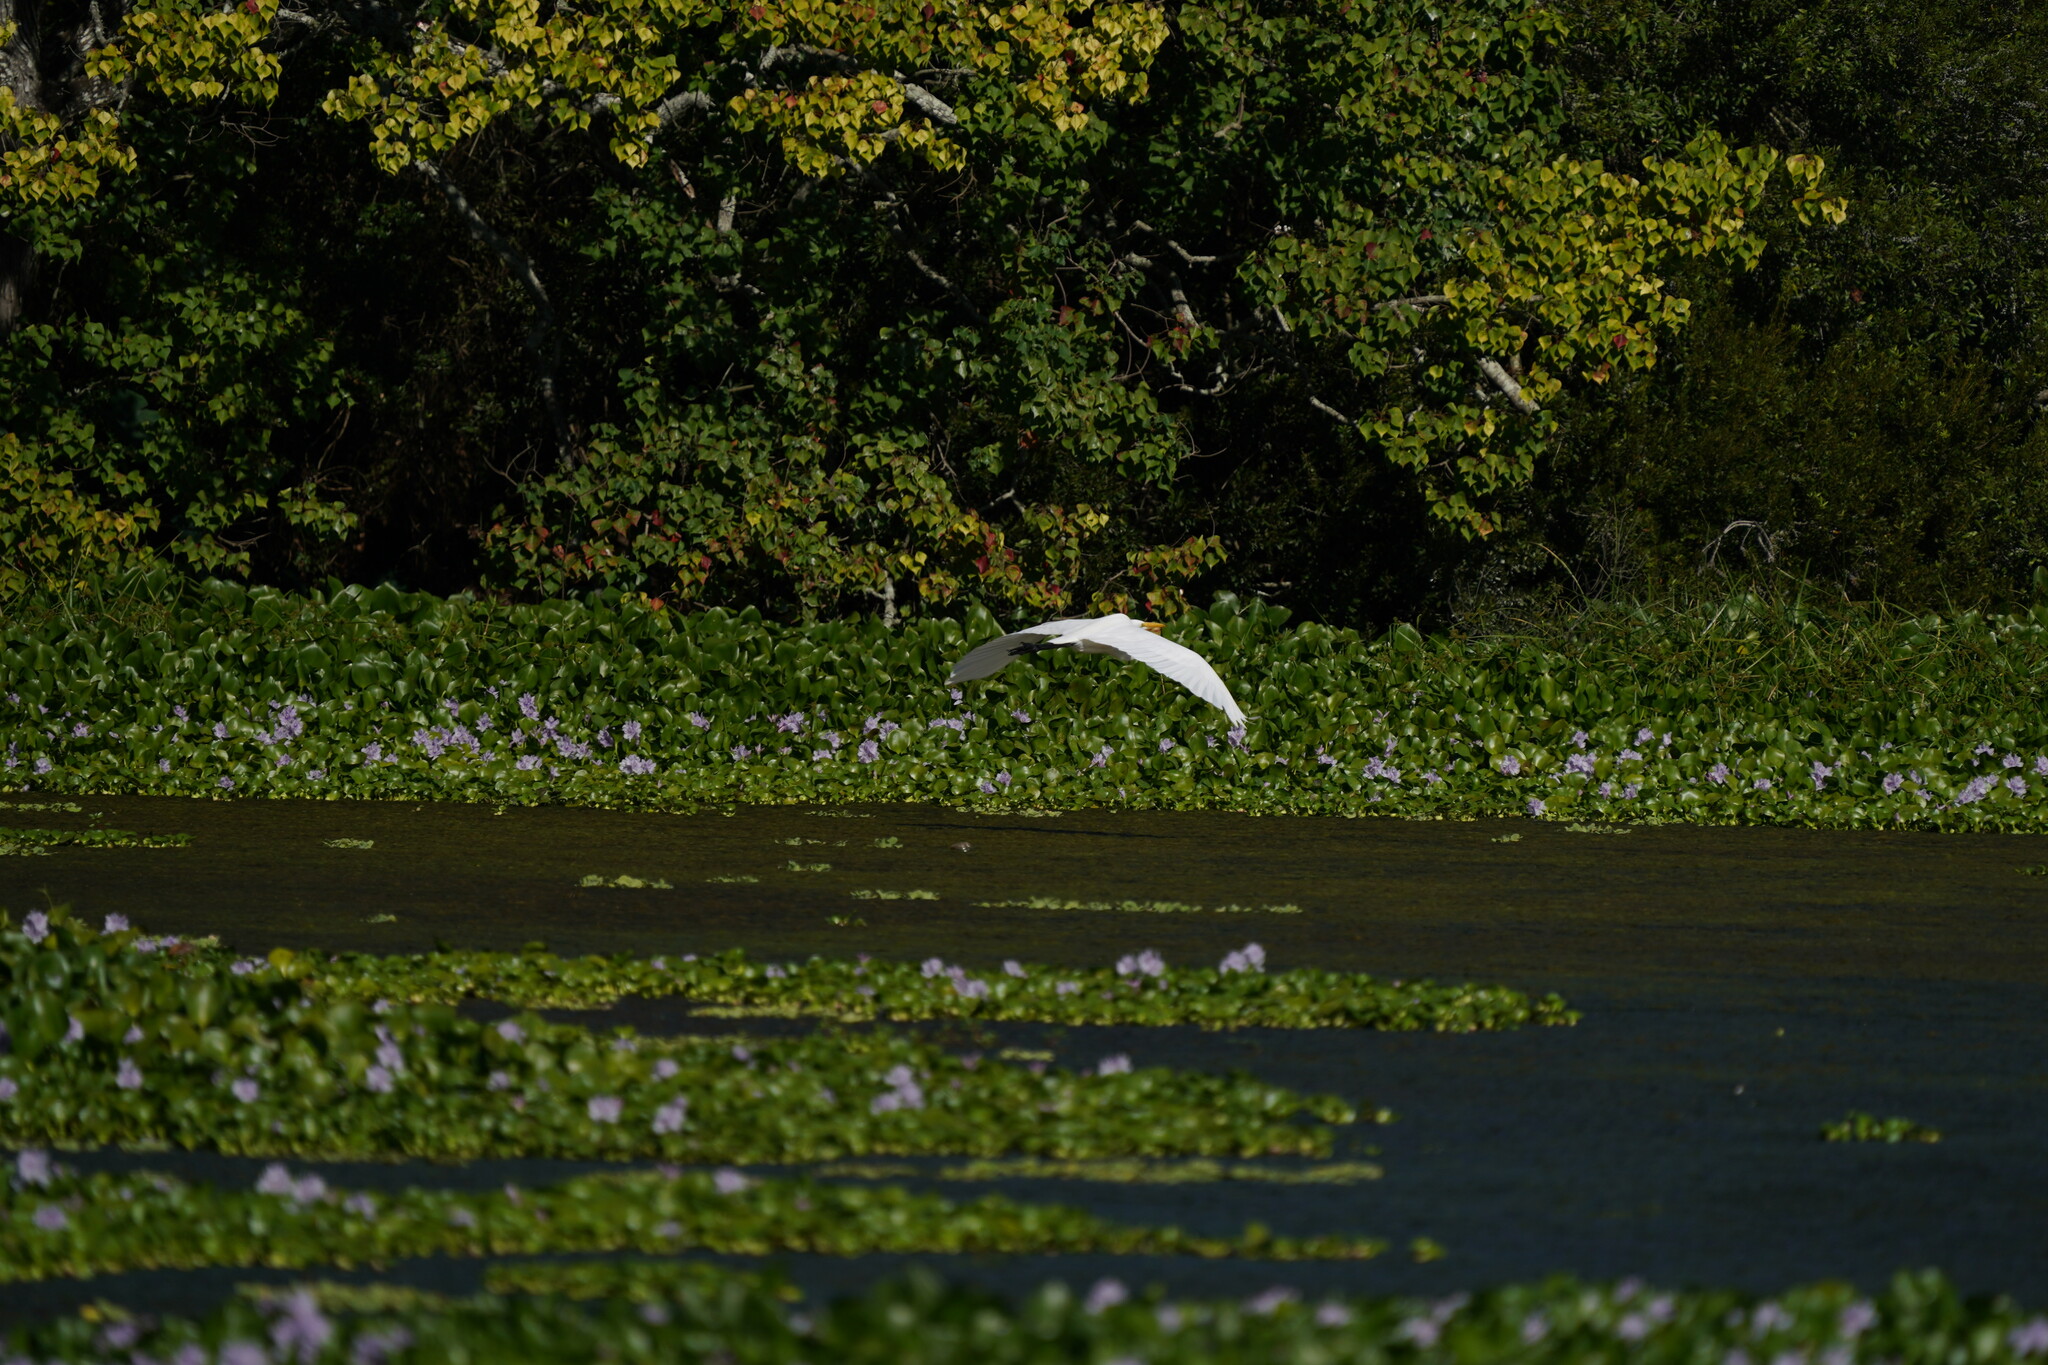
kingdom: Animalia
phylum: Chordata
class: Aves
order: Pelecaniformes
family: Ardeidae
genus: Ardea
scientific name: Ardea alba
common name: Great egret
